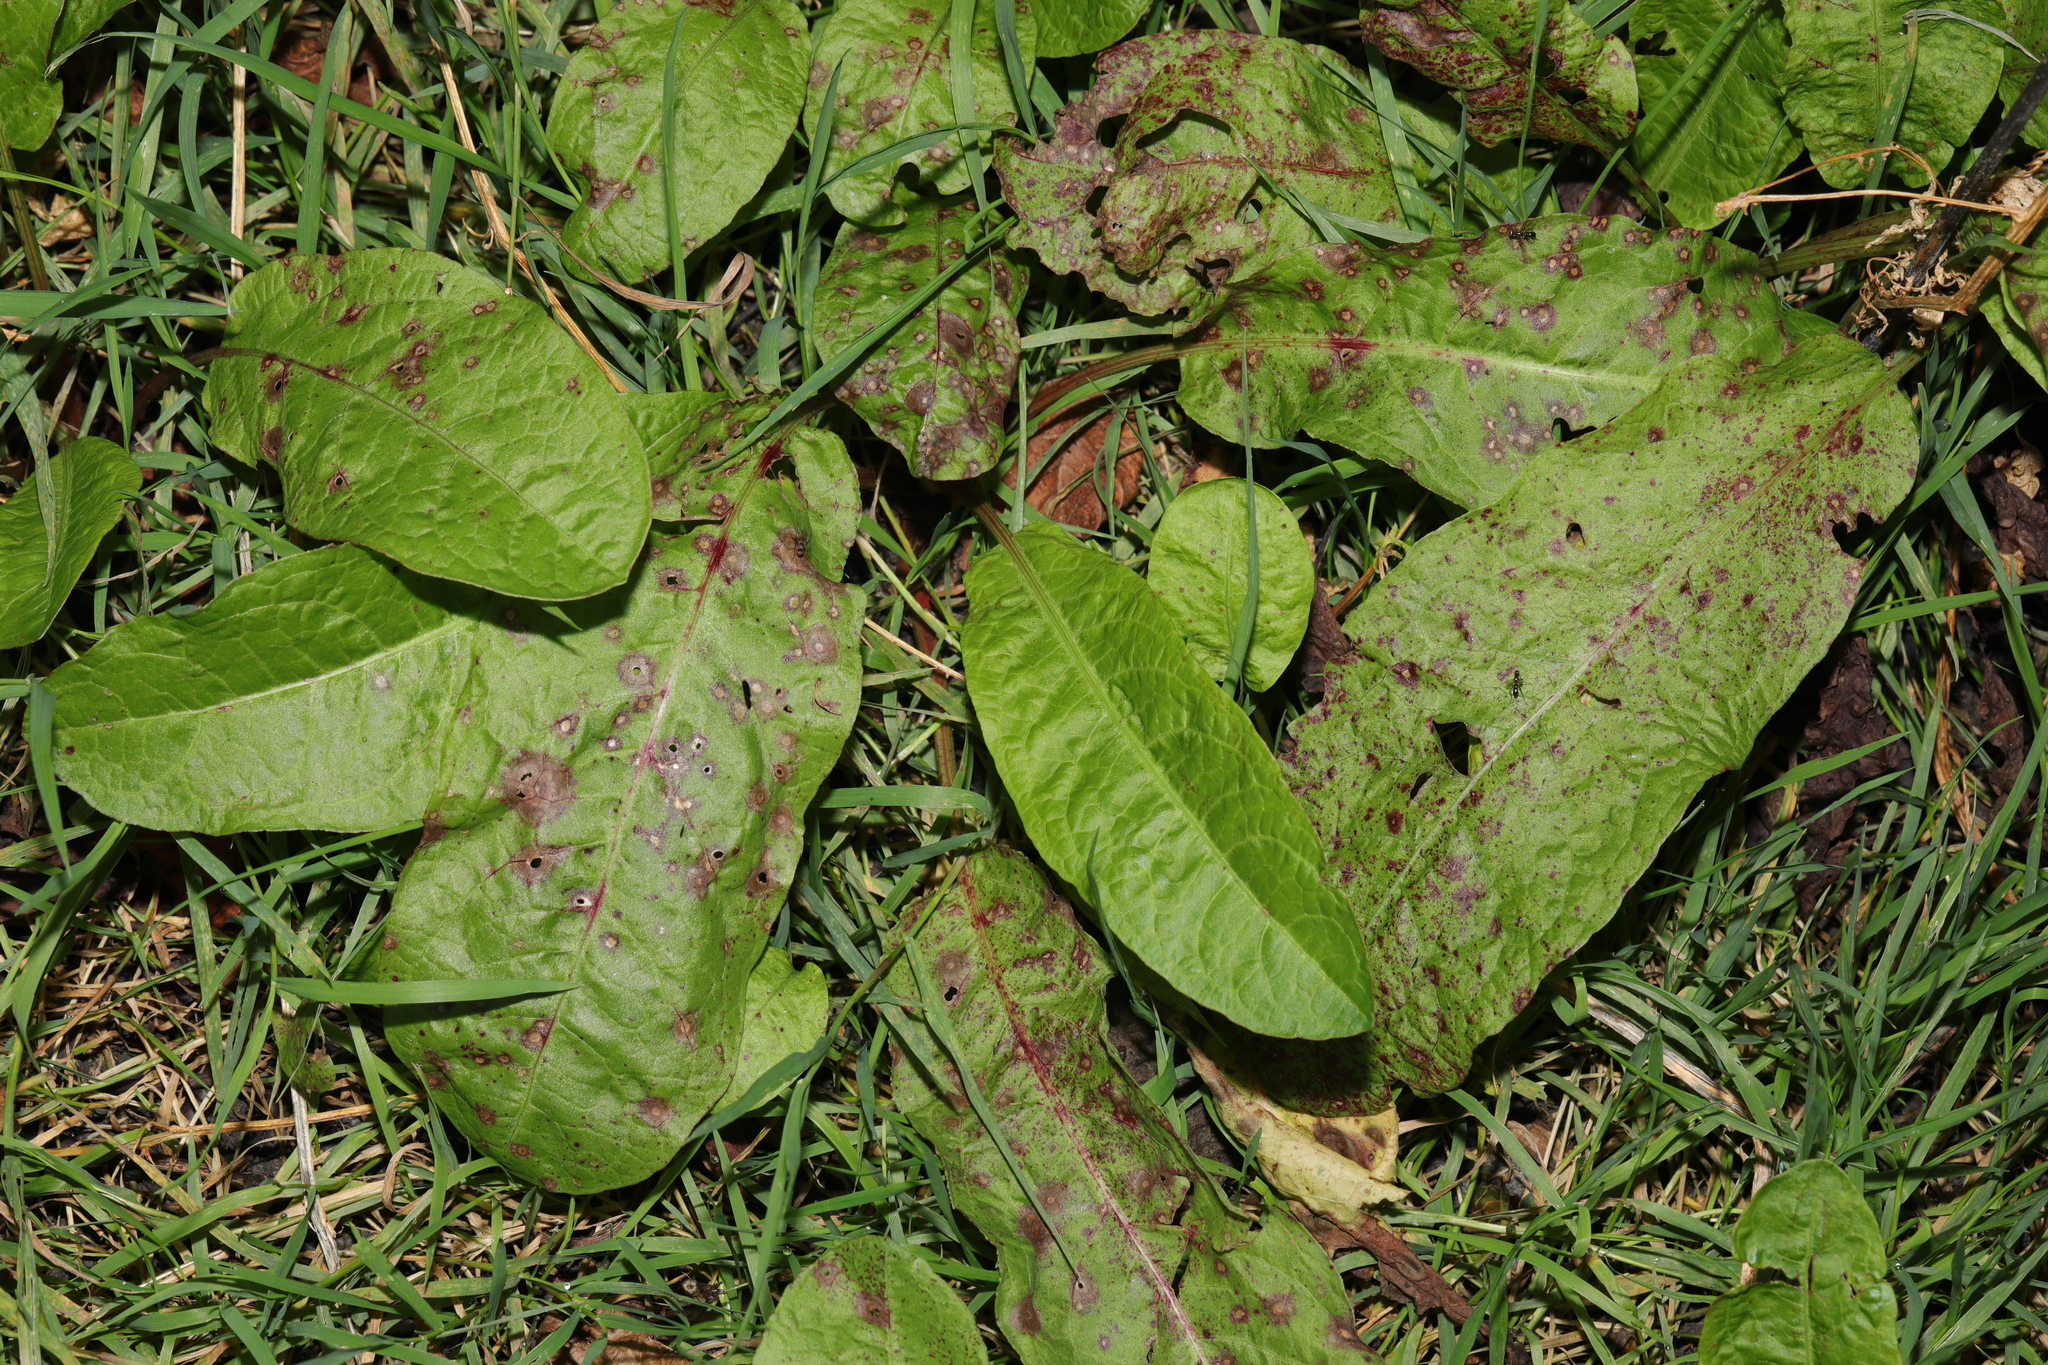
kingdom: Plantae
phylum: Tracheophyta
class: Magnoliopsida
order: Caryophyllales
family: Polygonaceae
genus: Rumex
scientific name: Rumex obtusifolius
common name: Bitter dock
